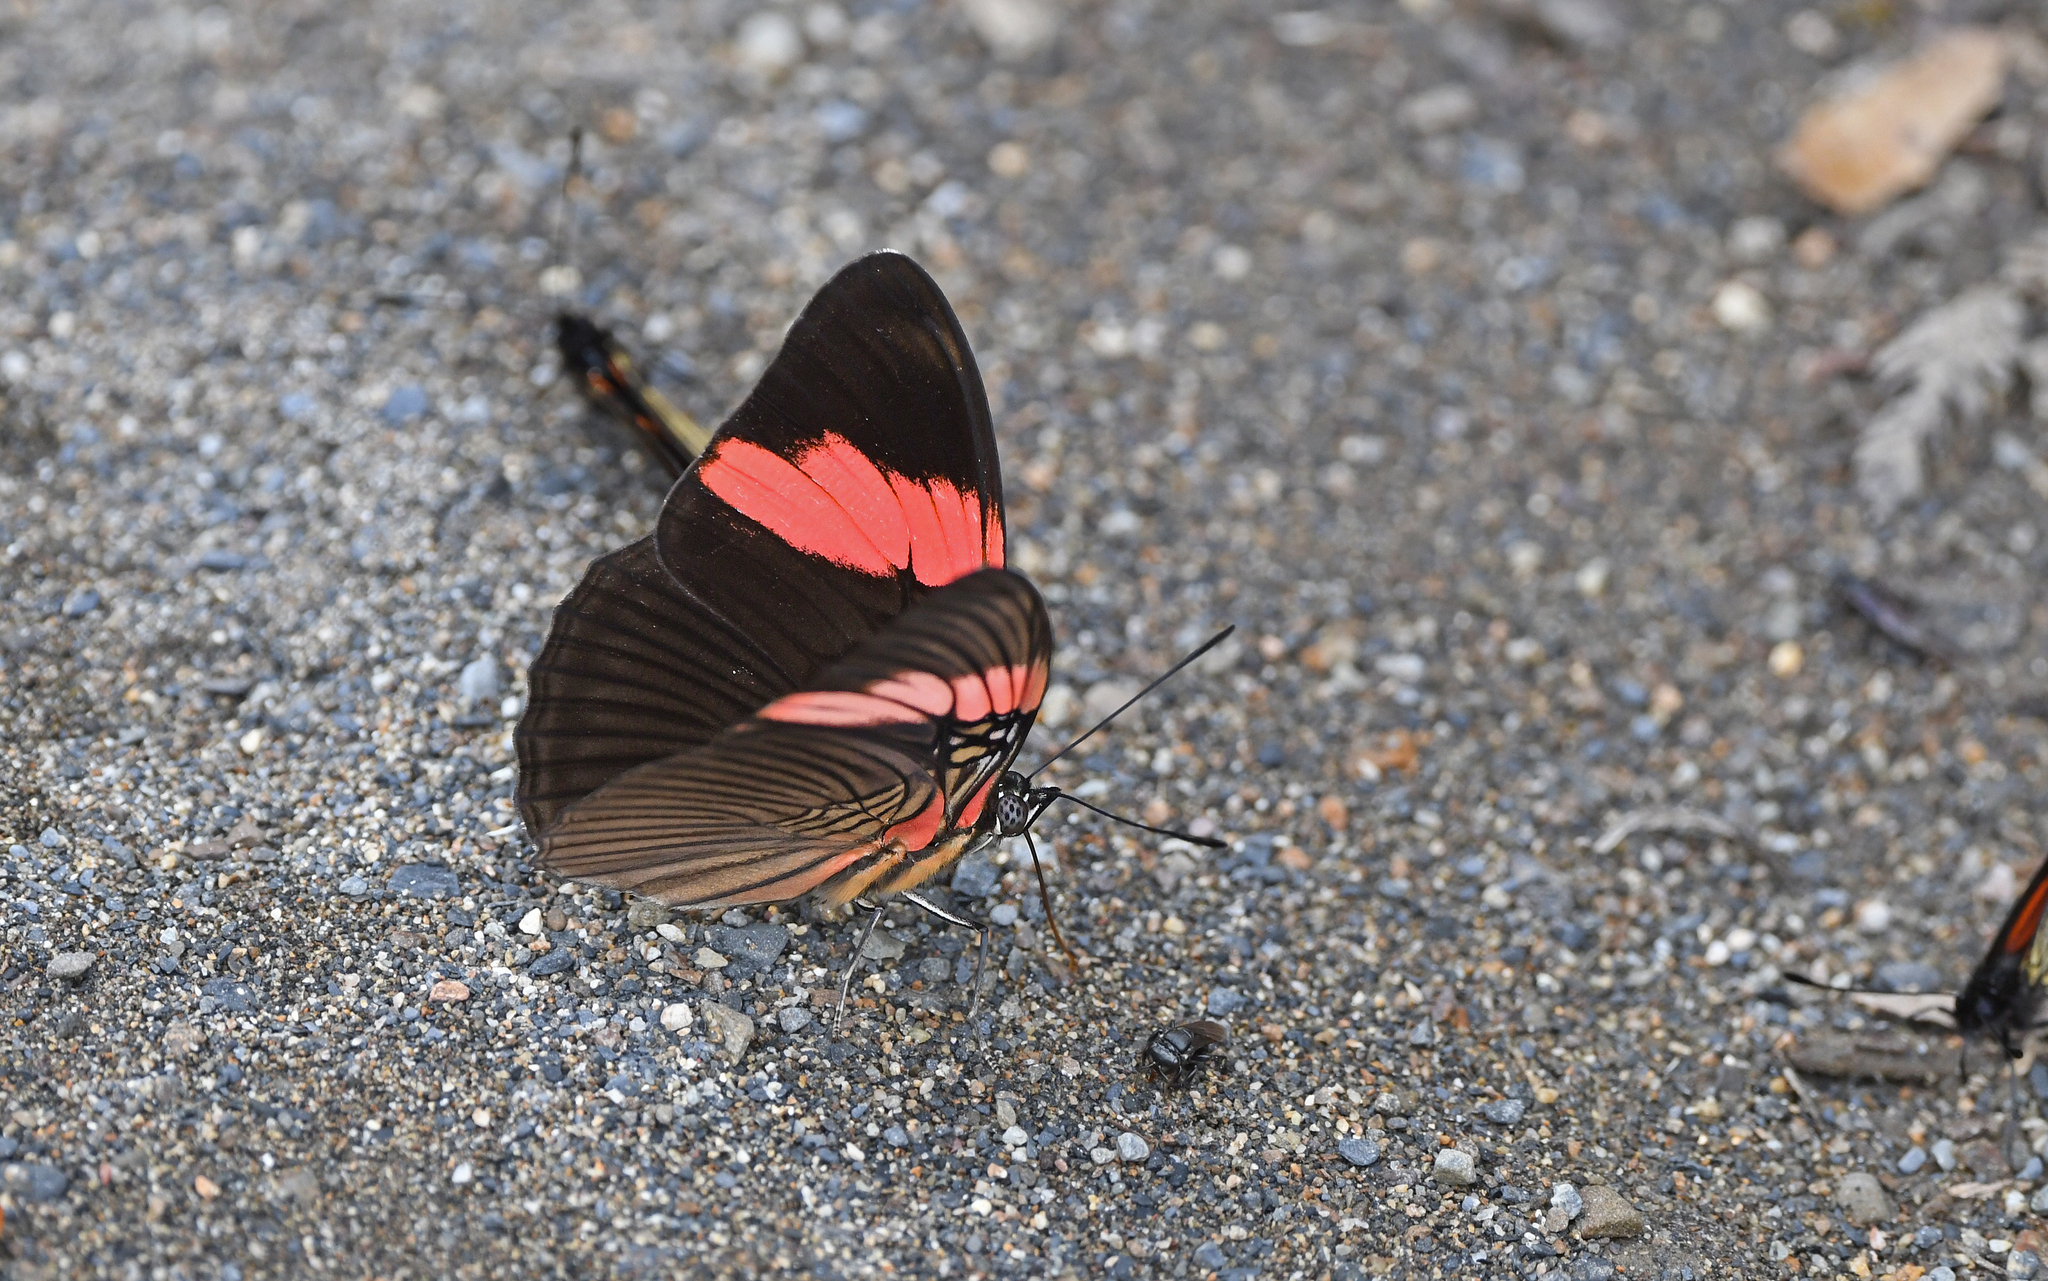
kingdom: Animalia
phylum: Arthropoda
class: Insecta
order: Lepidoptera
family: Nymphalidae
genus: Limenitis
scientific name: Limenitis isis
